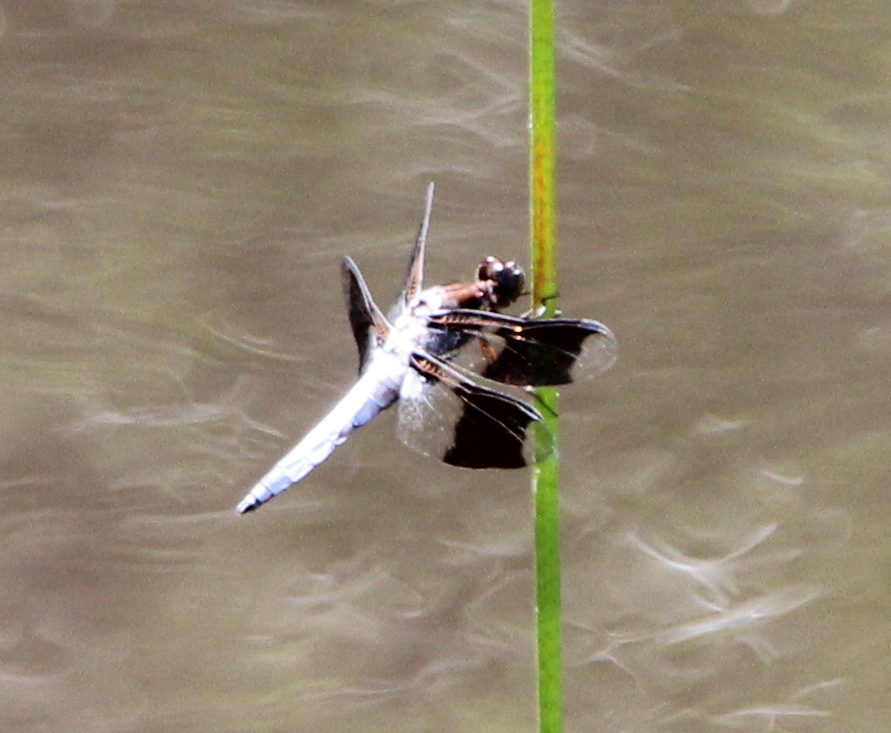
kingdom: Animalia
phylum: Arthropoda
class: Insecta
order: Odonata
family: Libellulidae
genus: Plathemis
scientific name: Plathemis lydia
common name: Common whitetail
